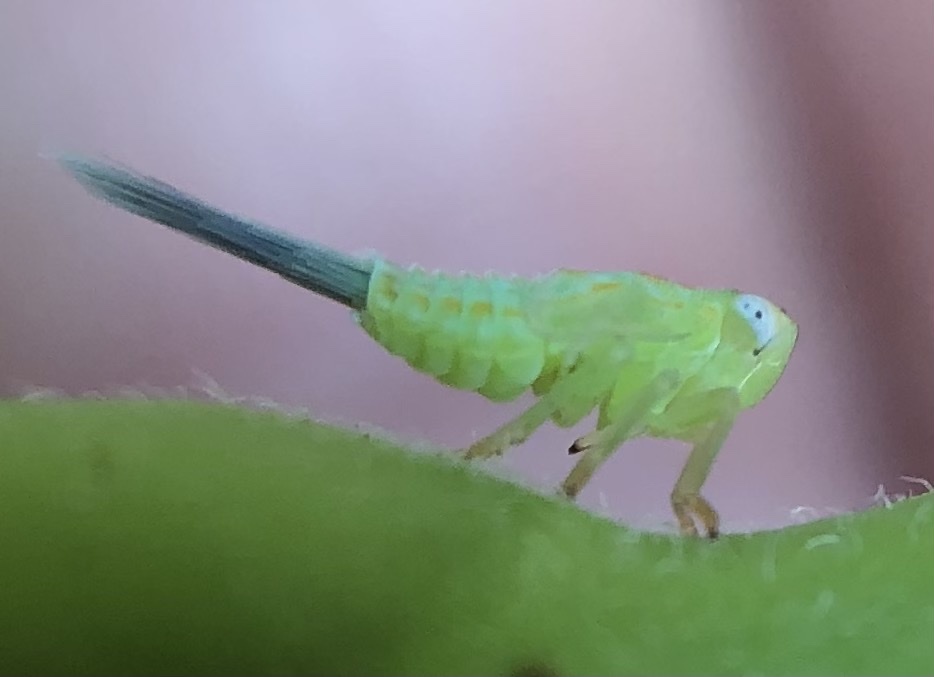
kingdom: Animalia
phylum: Arthropoda
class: Insecta
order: Hemiptera
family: Issidae
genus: Aplos
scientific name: Aplos simplex
